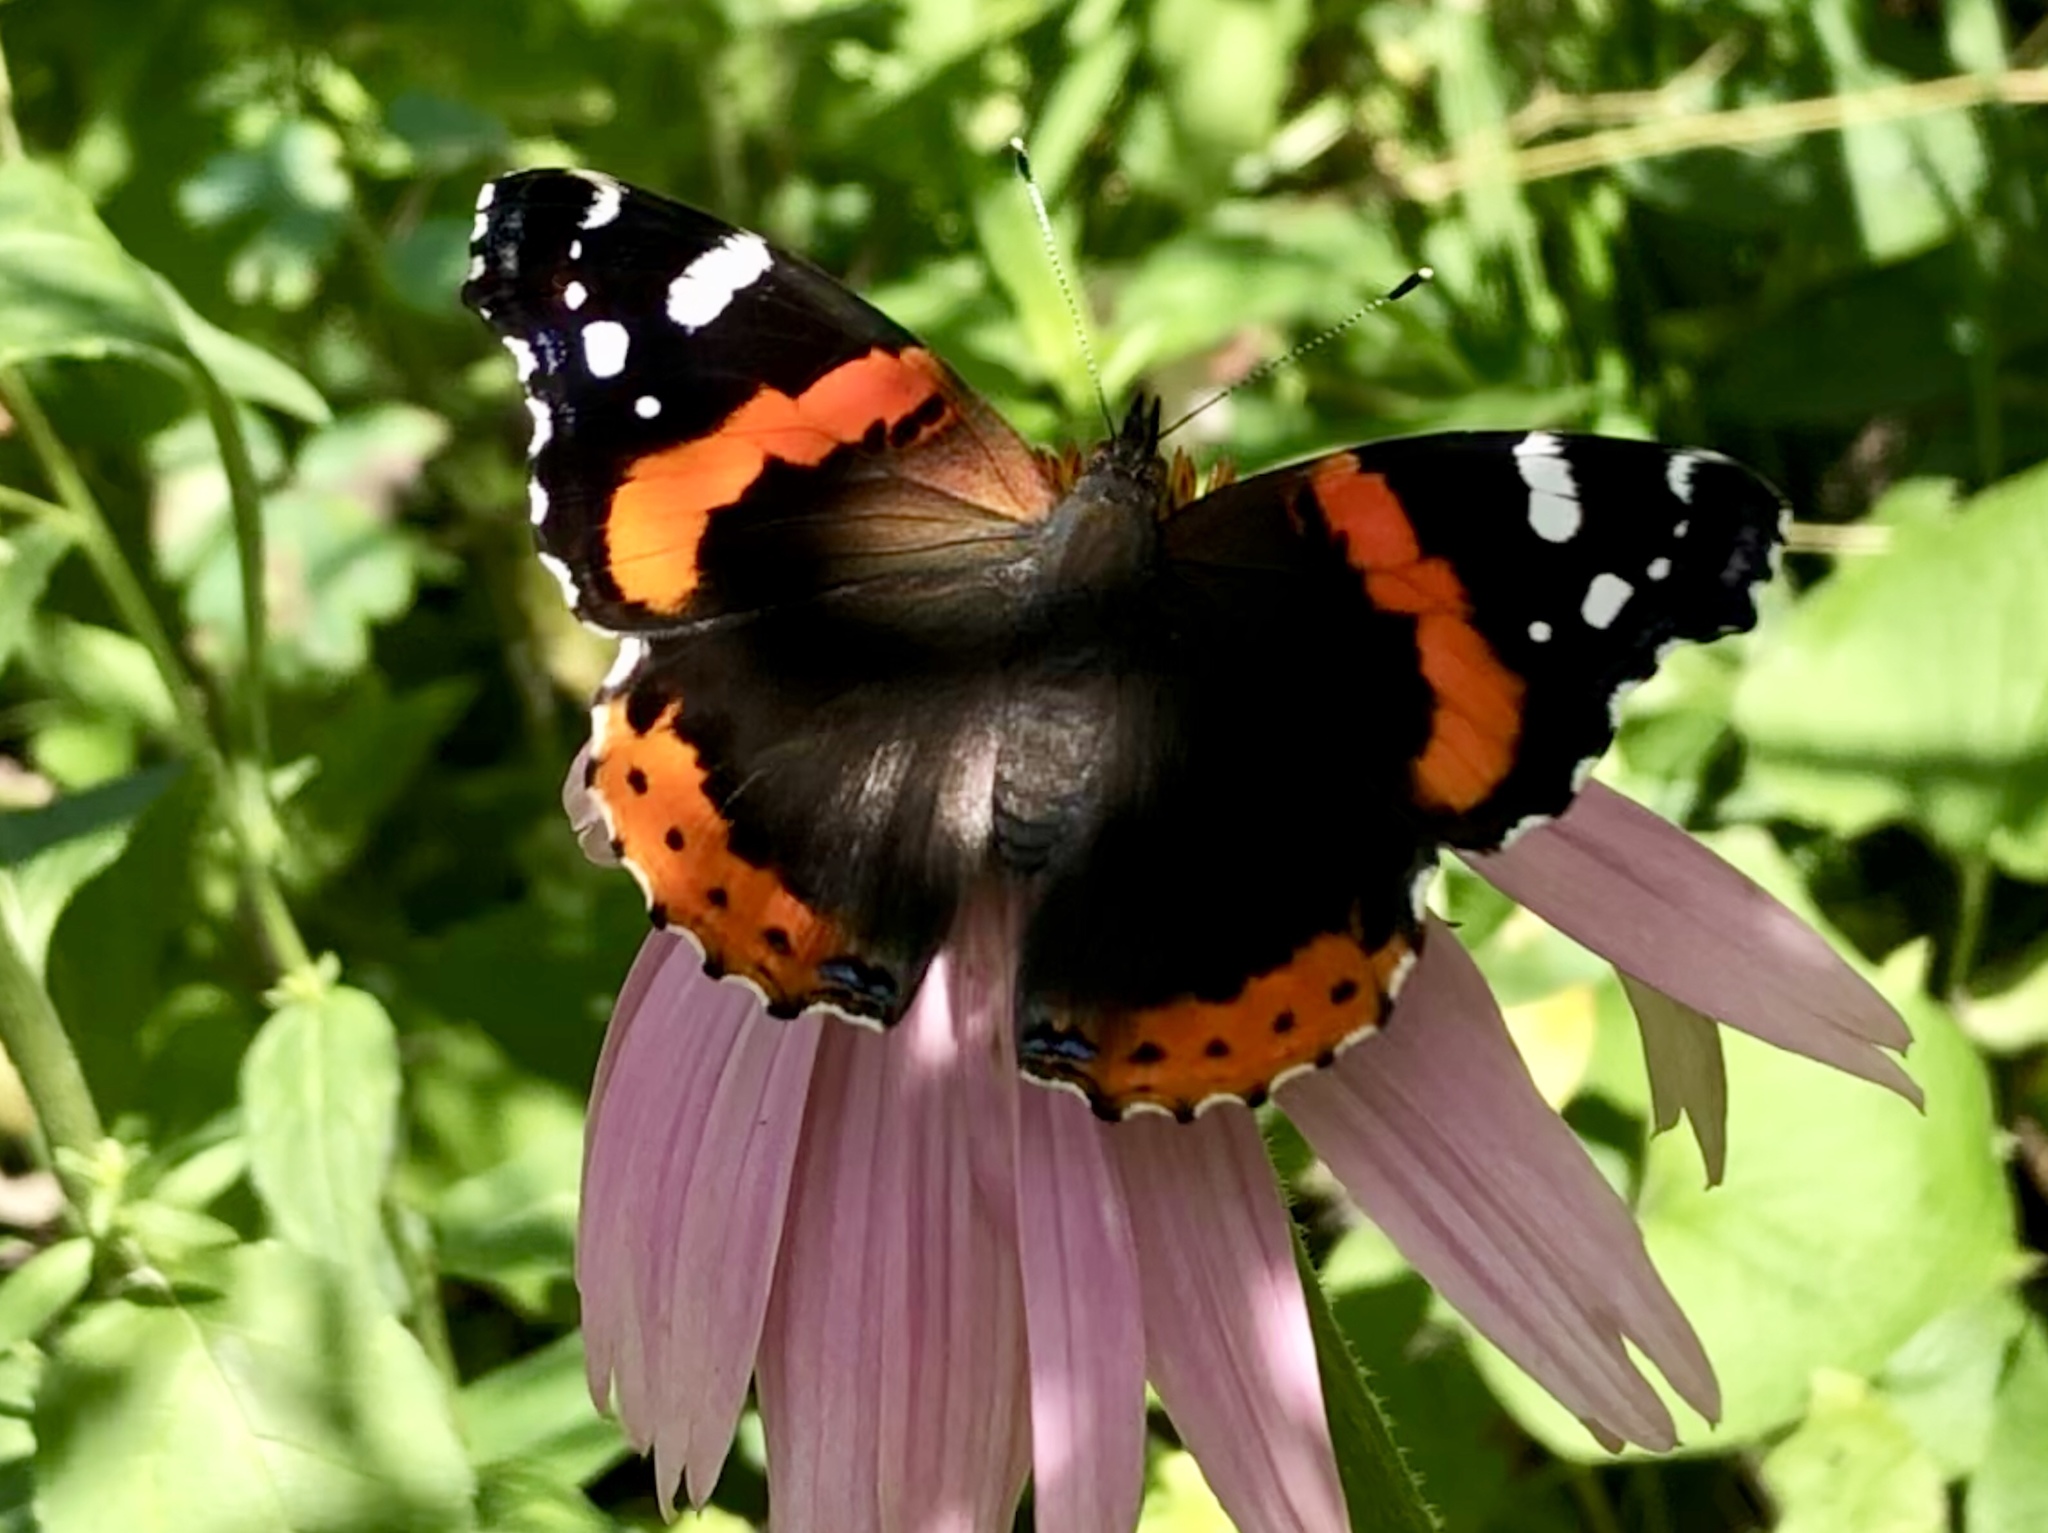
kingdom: Animalia
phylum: Arthropoda
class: Insecta
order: Lepidoptera
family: Nymphalidae
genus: Vanessa
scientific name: Vanessa atalanta
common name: Red admiral
